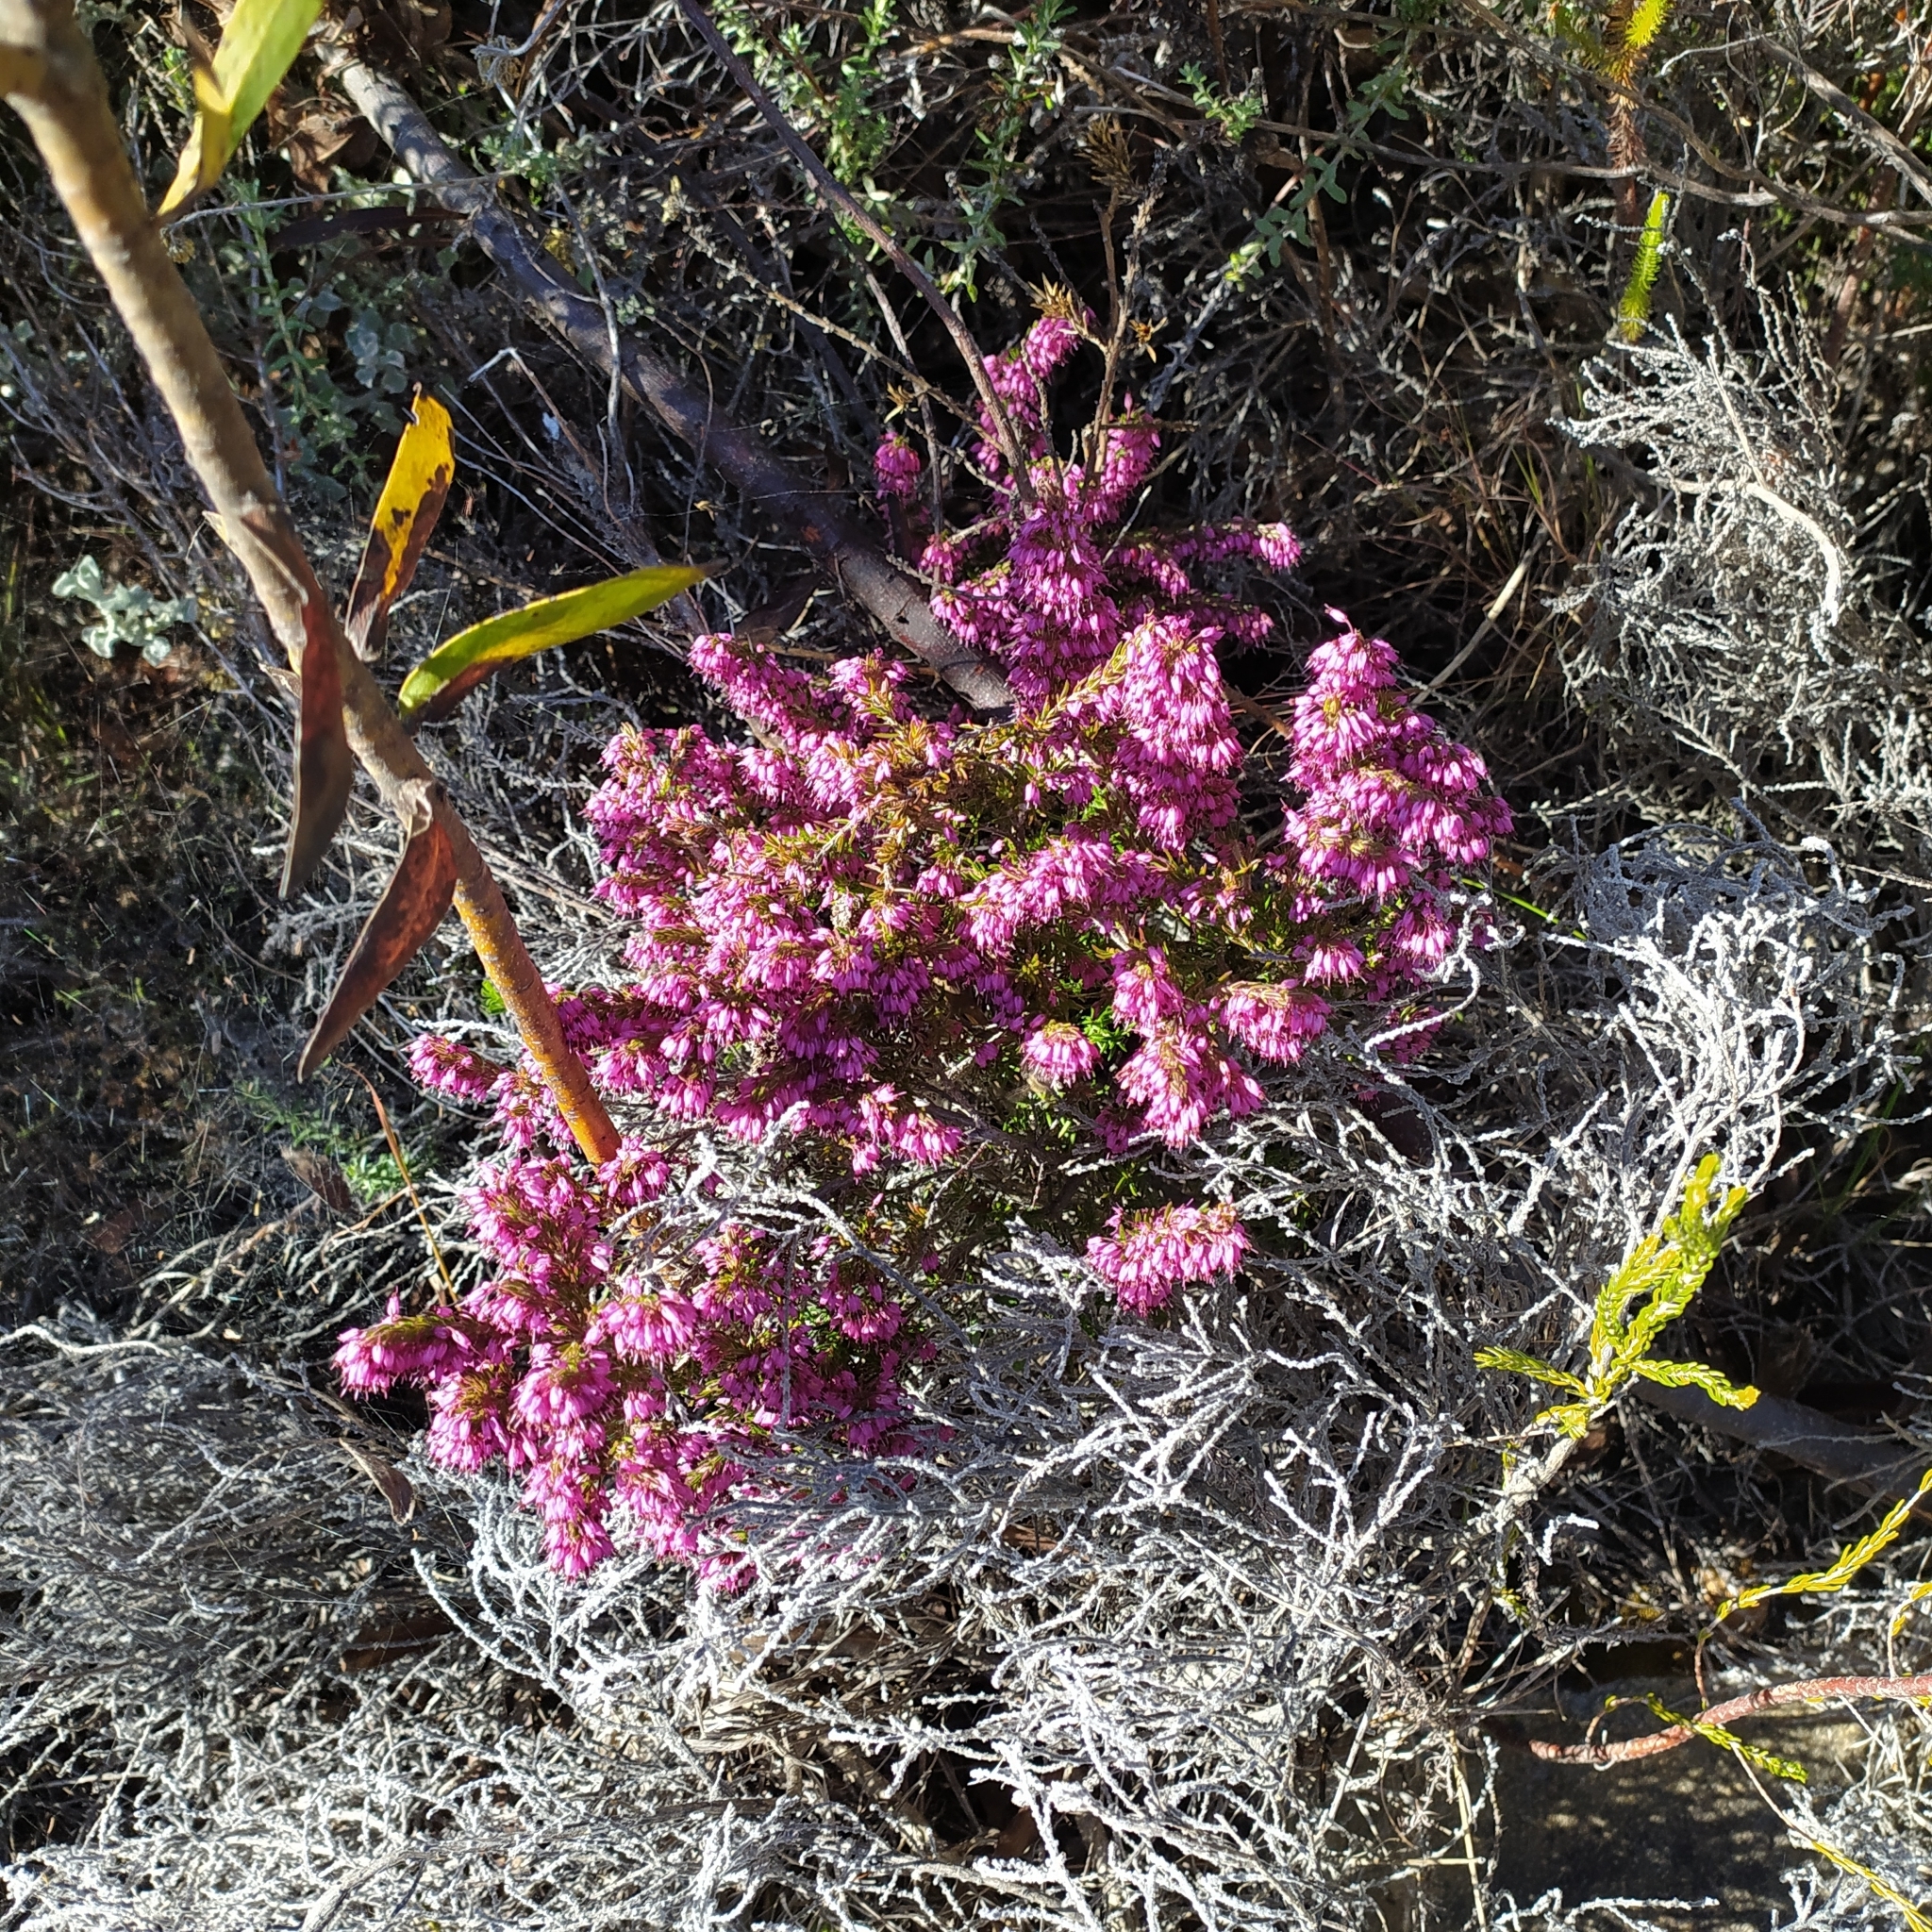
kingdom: Plantae
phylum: Tracheophyta
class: Magnoliopsida
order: Ericales
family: Ericaceae
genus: Erica
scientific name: Erica nudiflora
